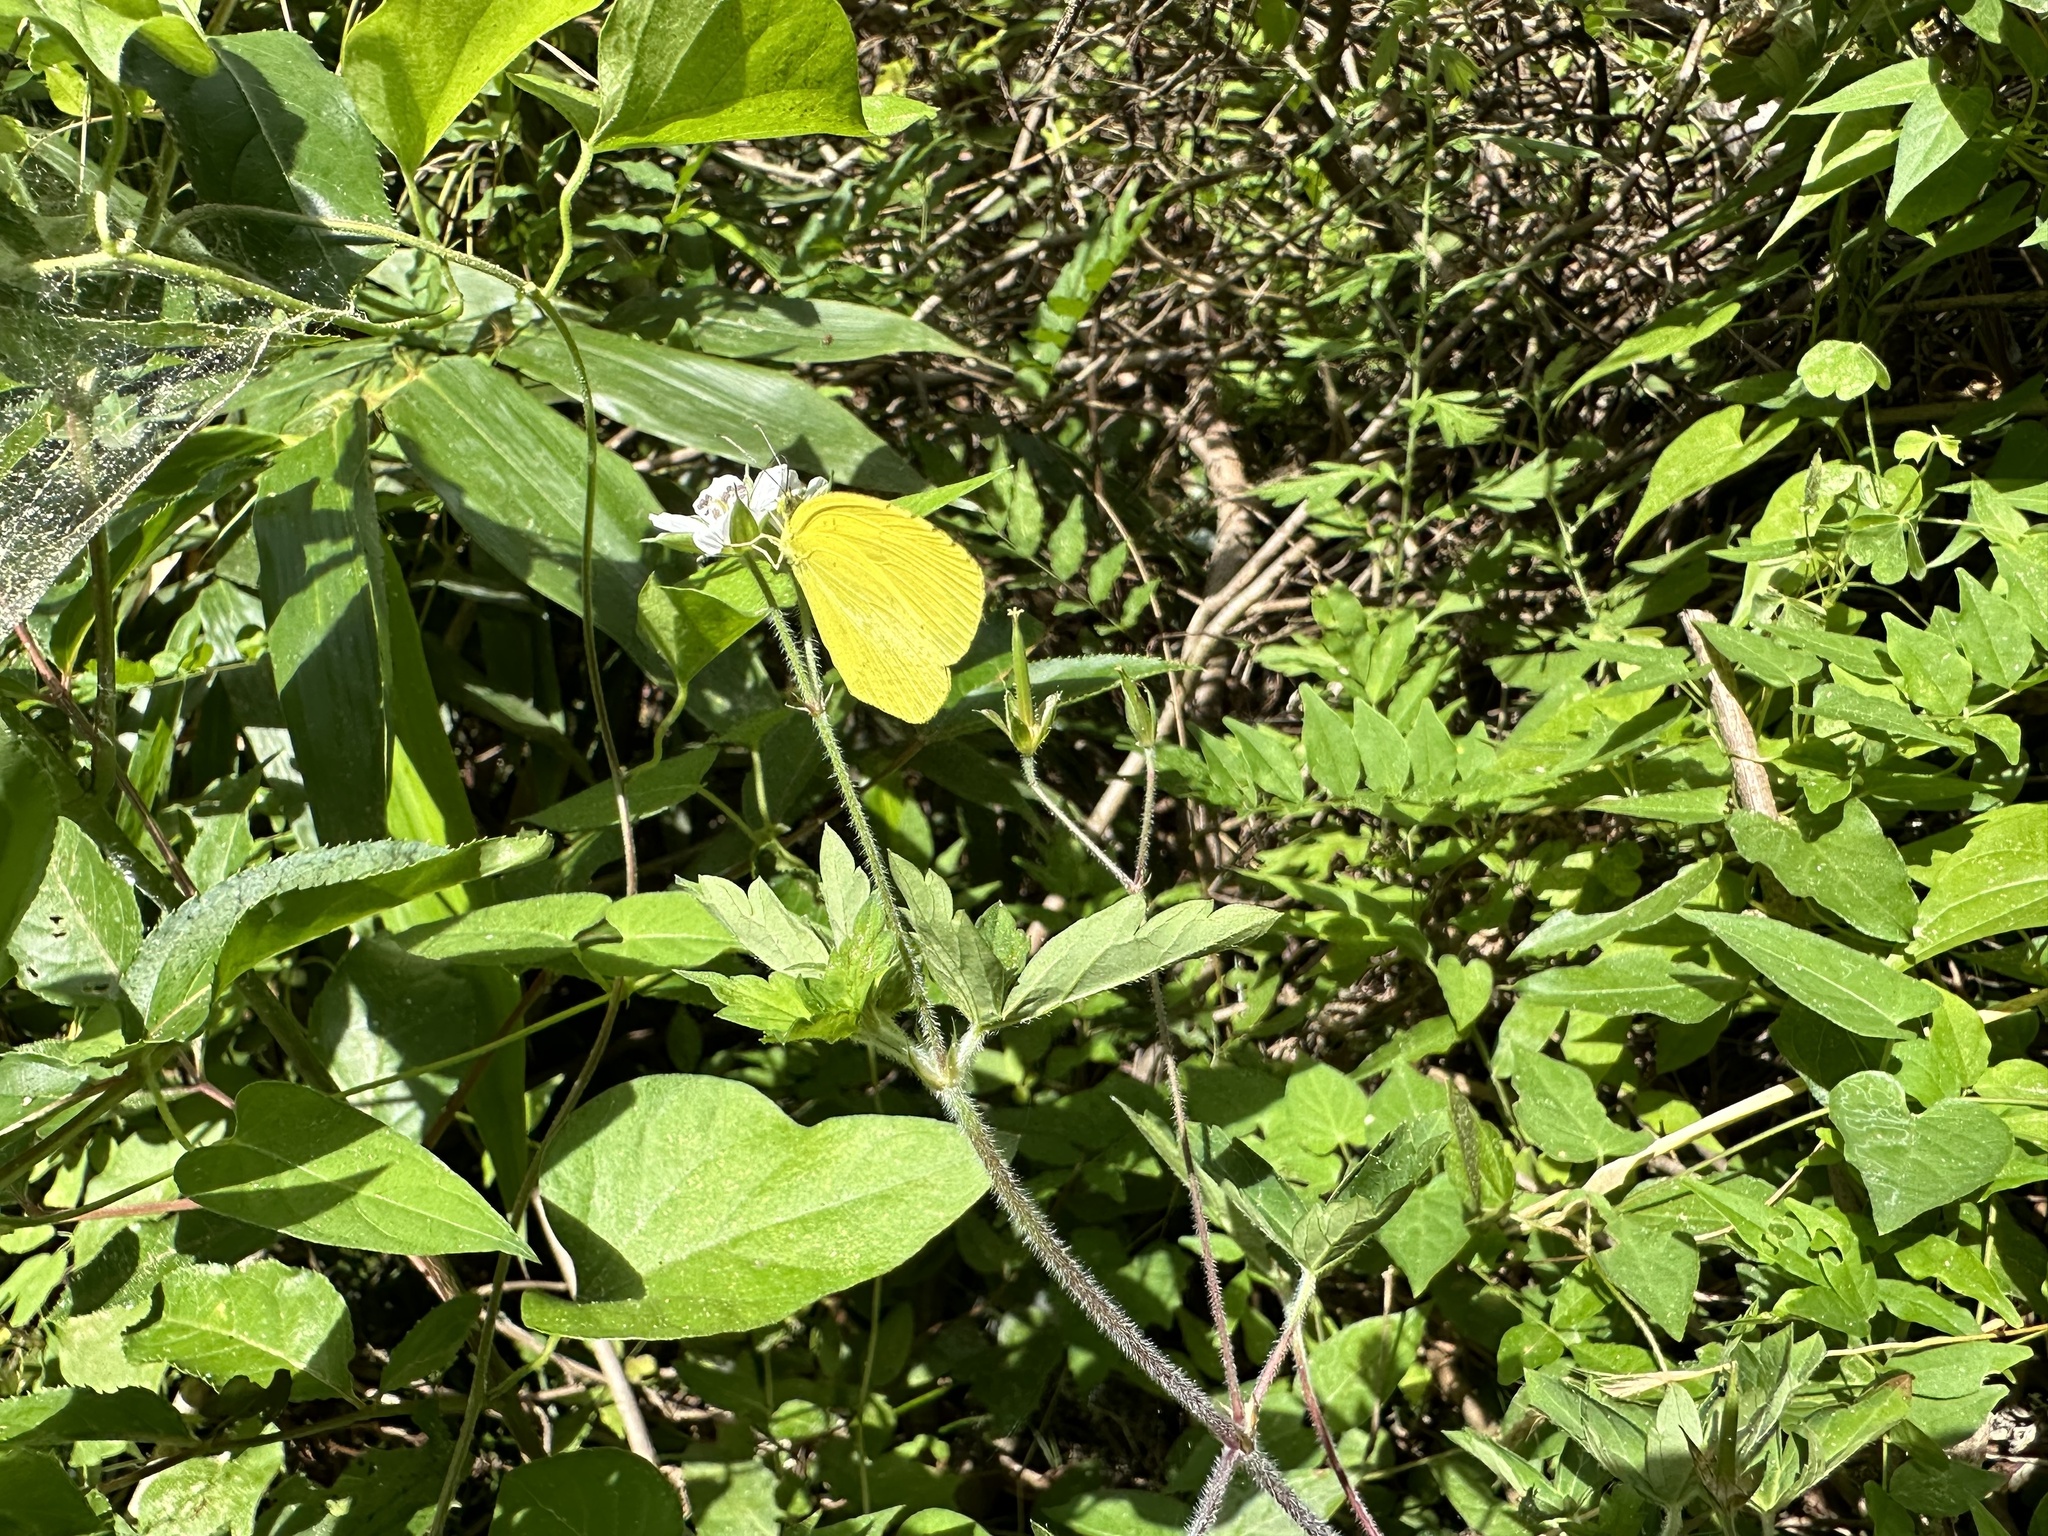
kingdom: Animalia
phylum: Arthropoda
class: Insecta
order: Lepidoptera
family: Pieridae
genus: Eurema
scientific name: Eurema mandarina
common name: Japanese common grass yellow
